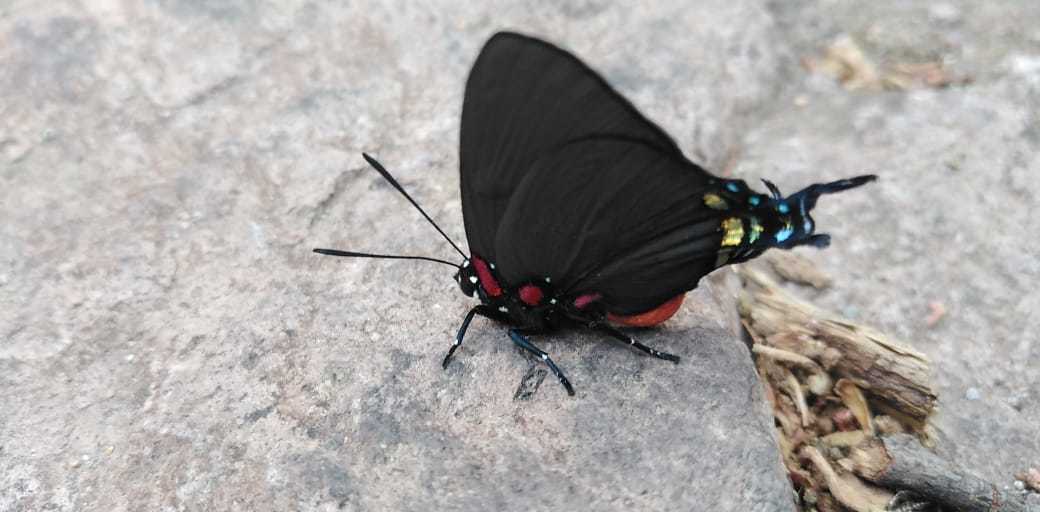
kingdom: Animalia
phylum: Arthropoda
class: Insecta
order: Lepidoptera
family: Lycaenidae
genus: Atlides
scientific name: Atlides halesus
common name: Great purple hairstreak
